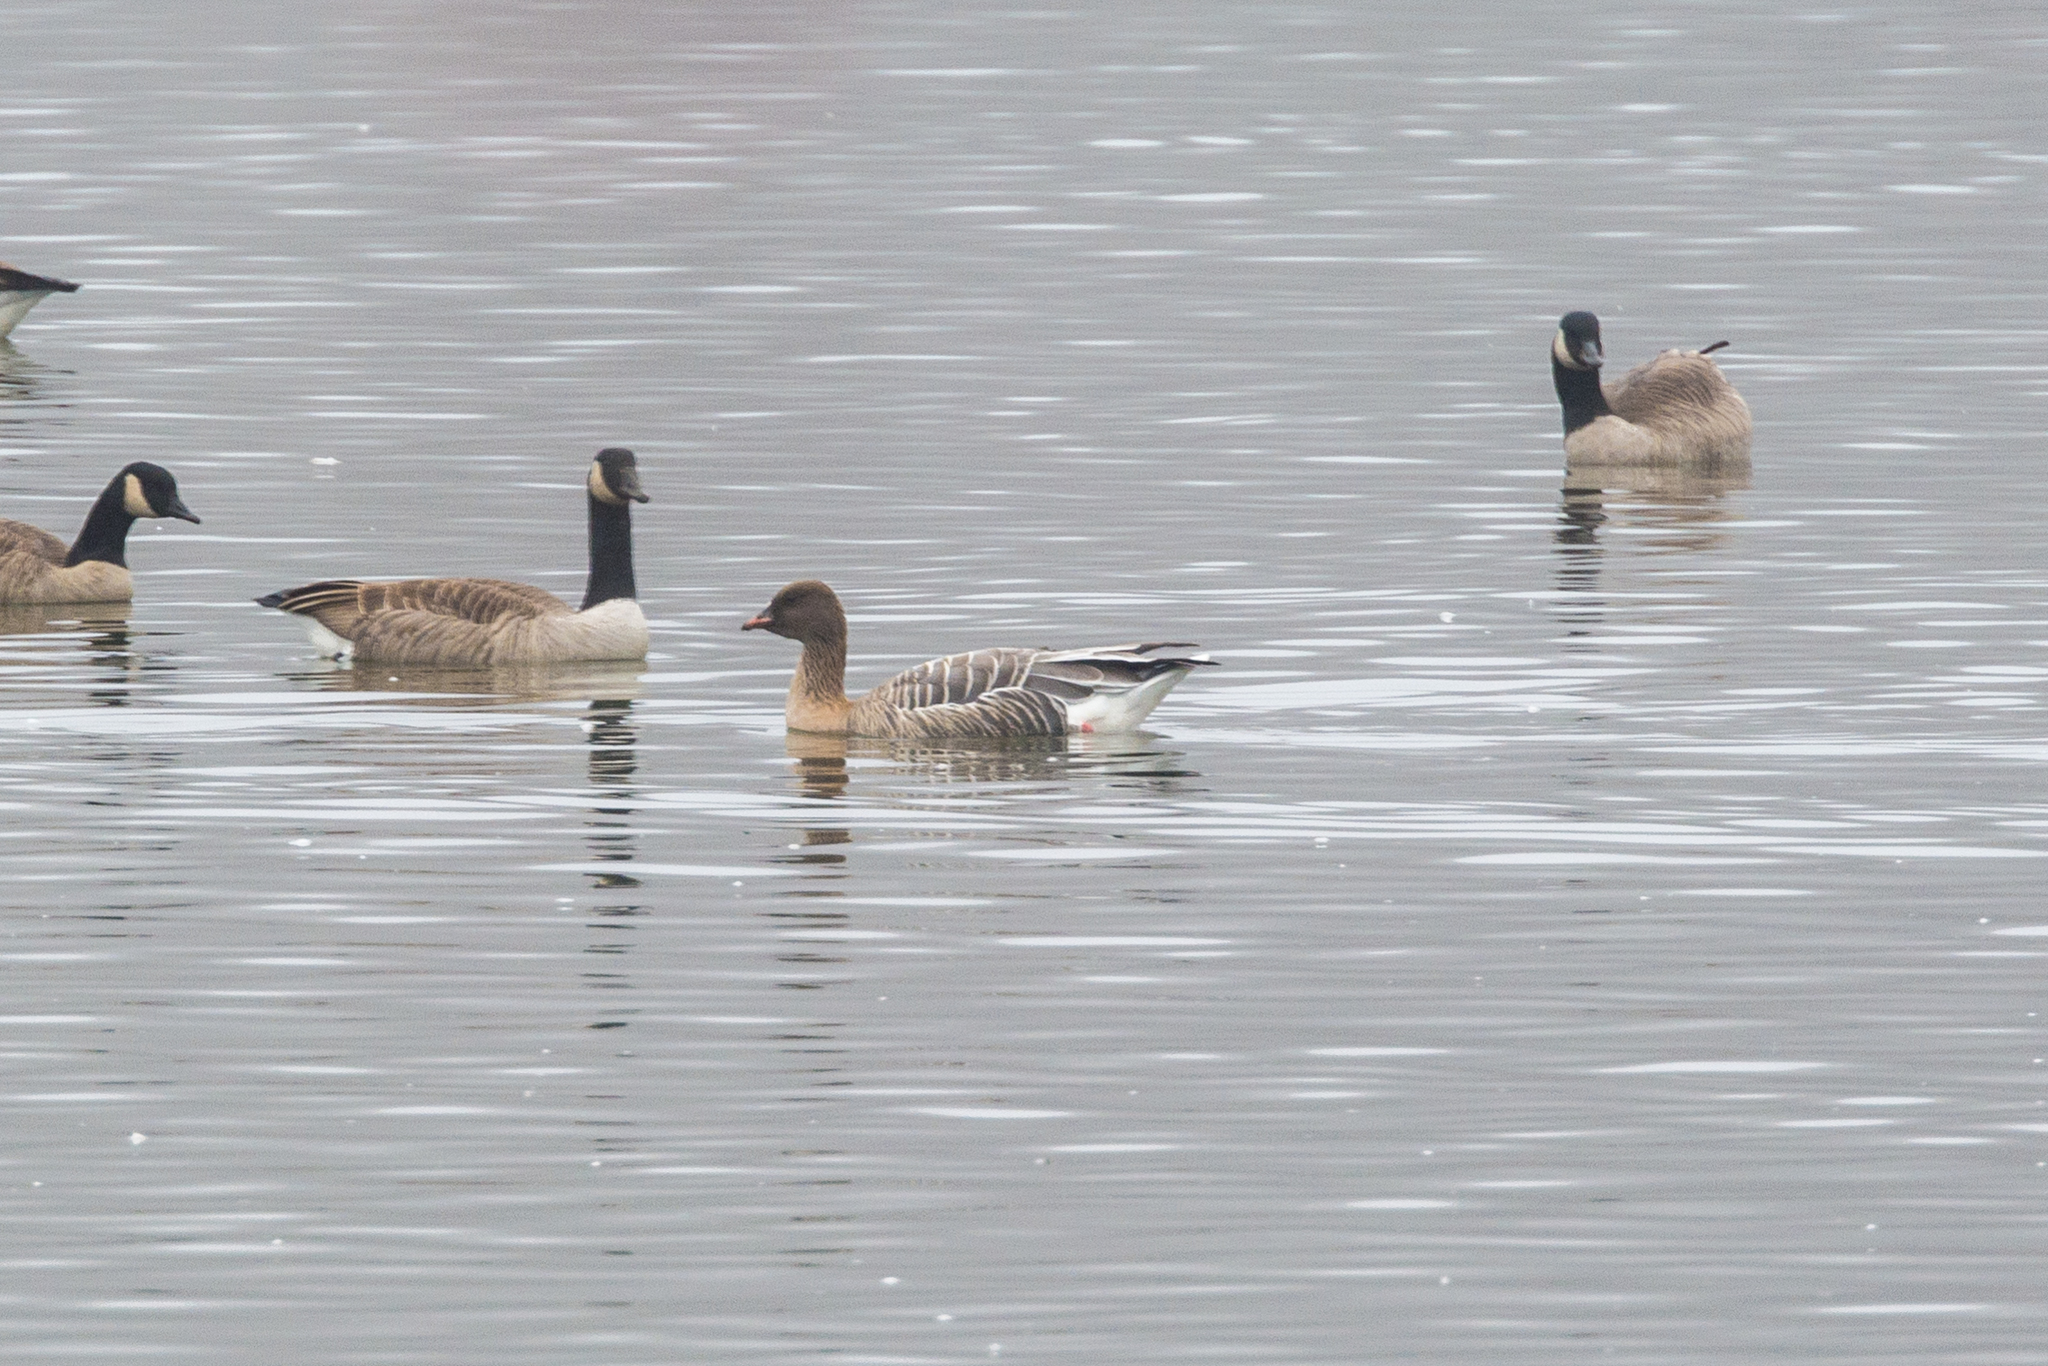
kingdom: Animalia
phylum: Chordata
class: Aves
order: Anseriformes
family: Anatidae
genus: Anser
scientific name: Anser brachyrhynchus
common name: Pink-footed goose
